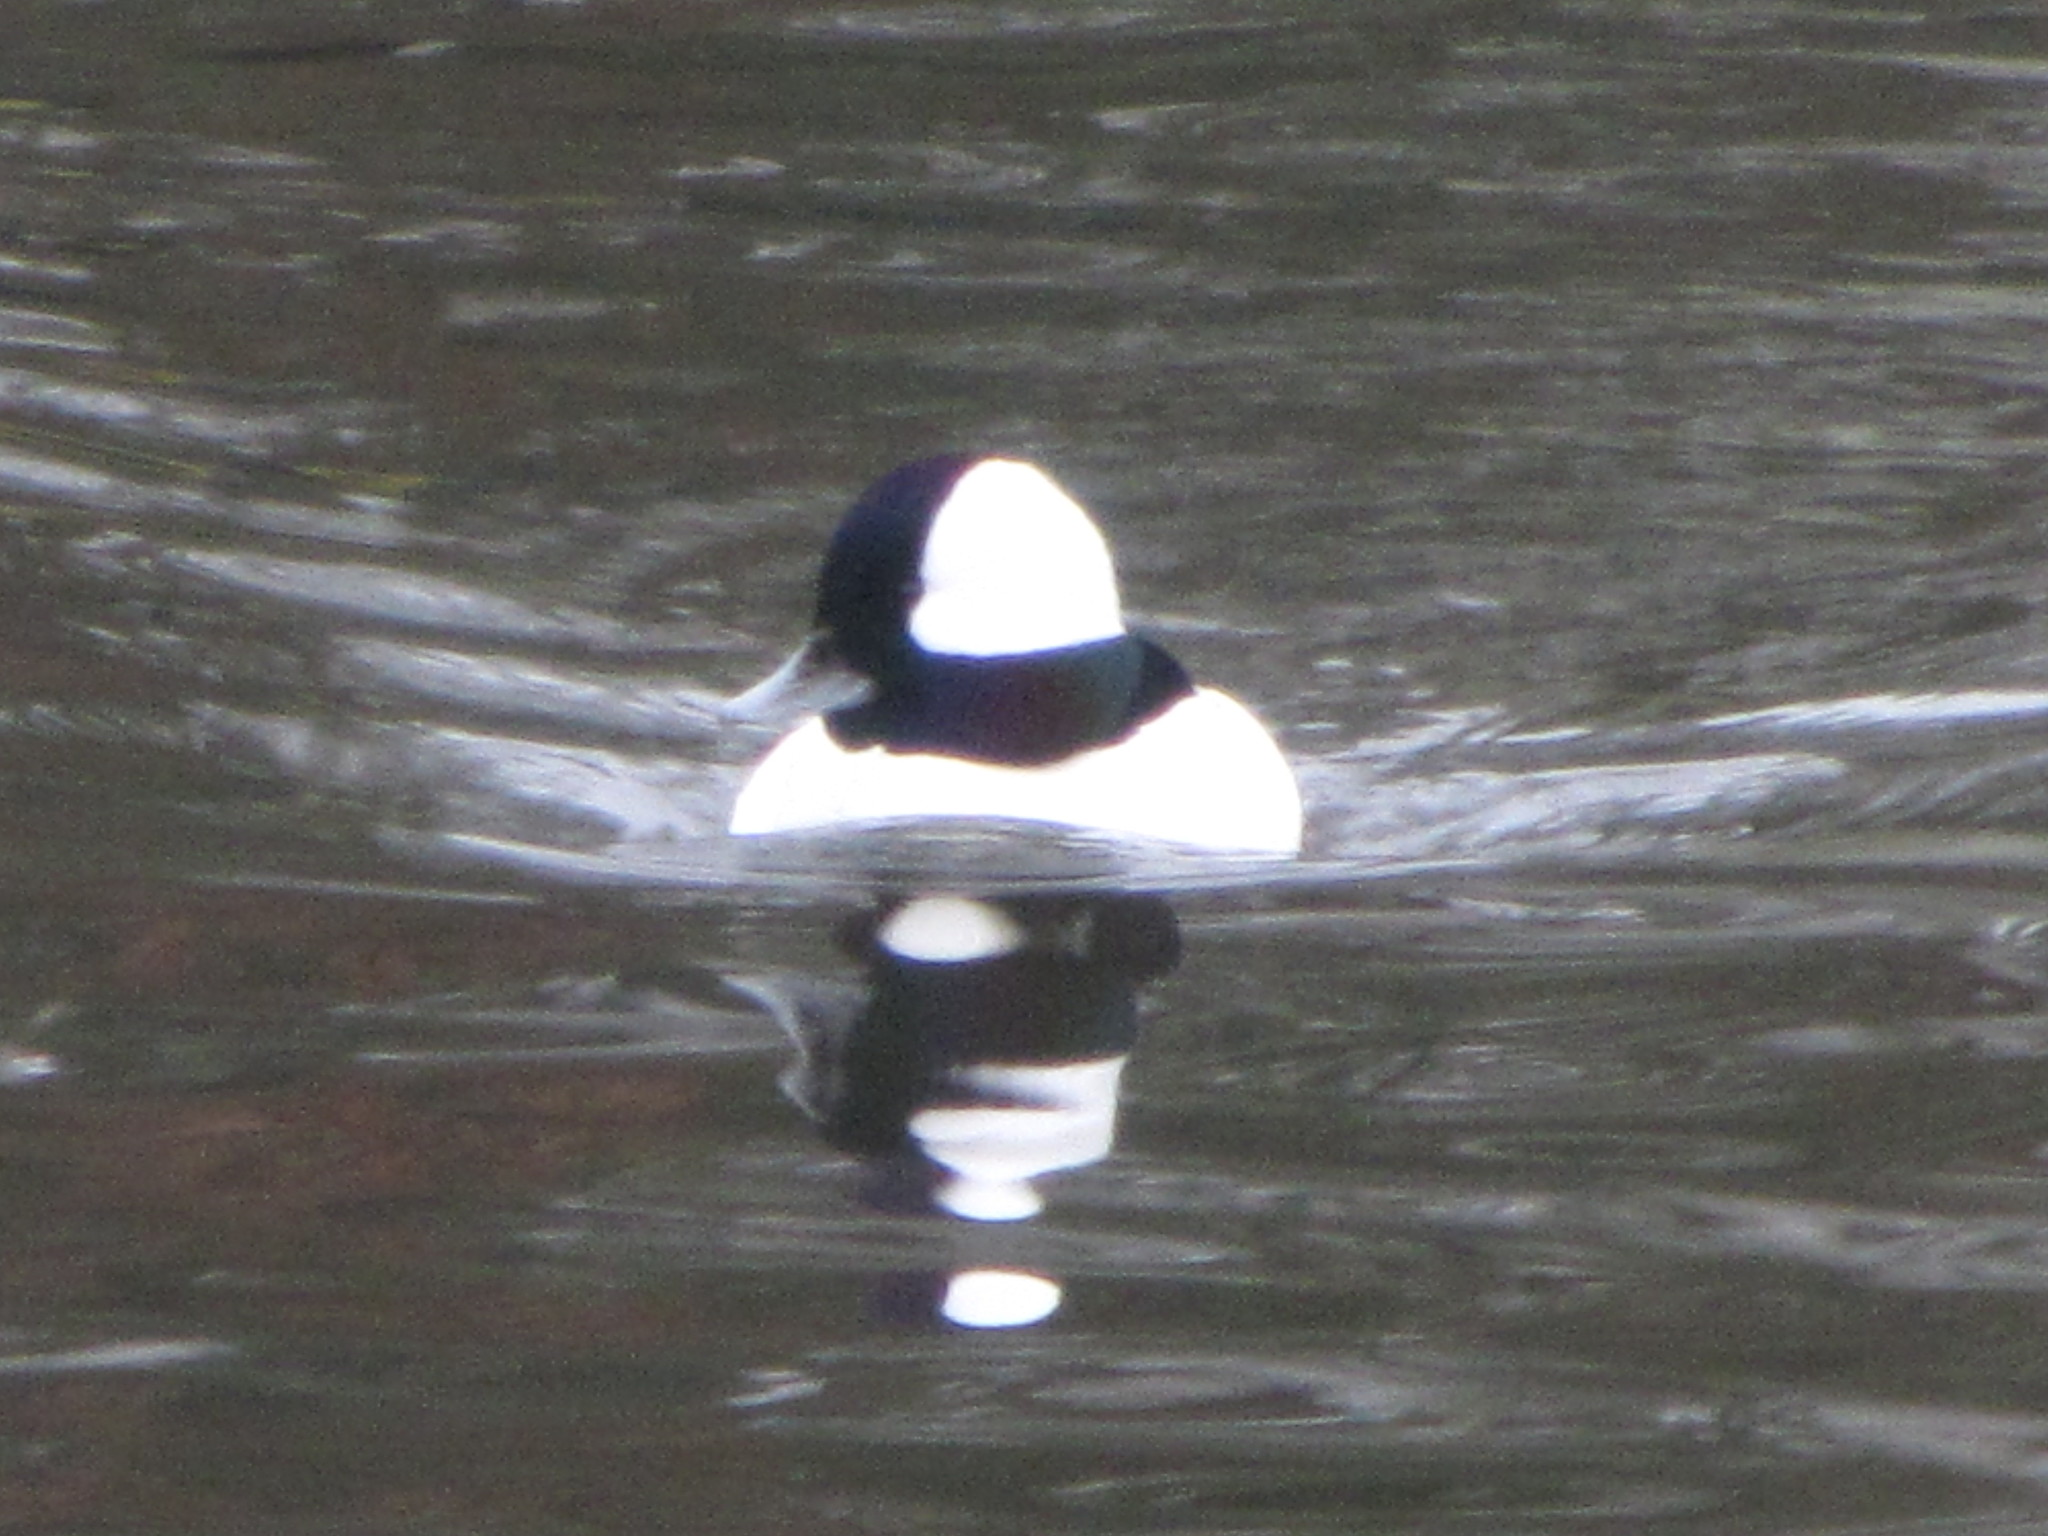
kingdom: Animalia
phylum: Chordata
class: Aves
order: Anseriformes
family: Anatidae
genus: Bucephala
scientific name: Bucephala albeola
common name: Bufflehead
